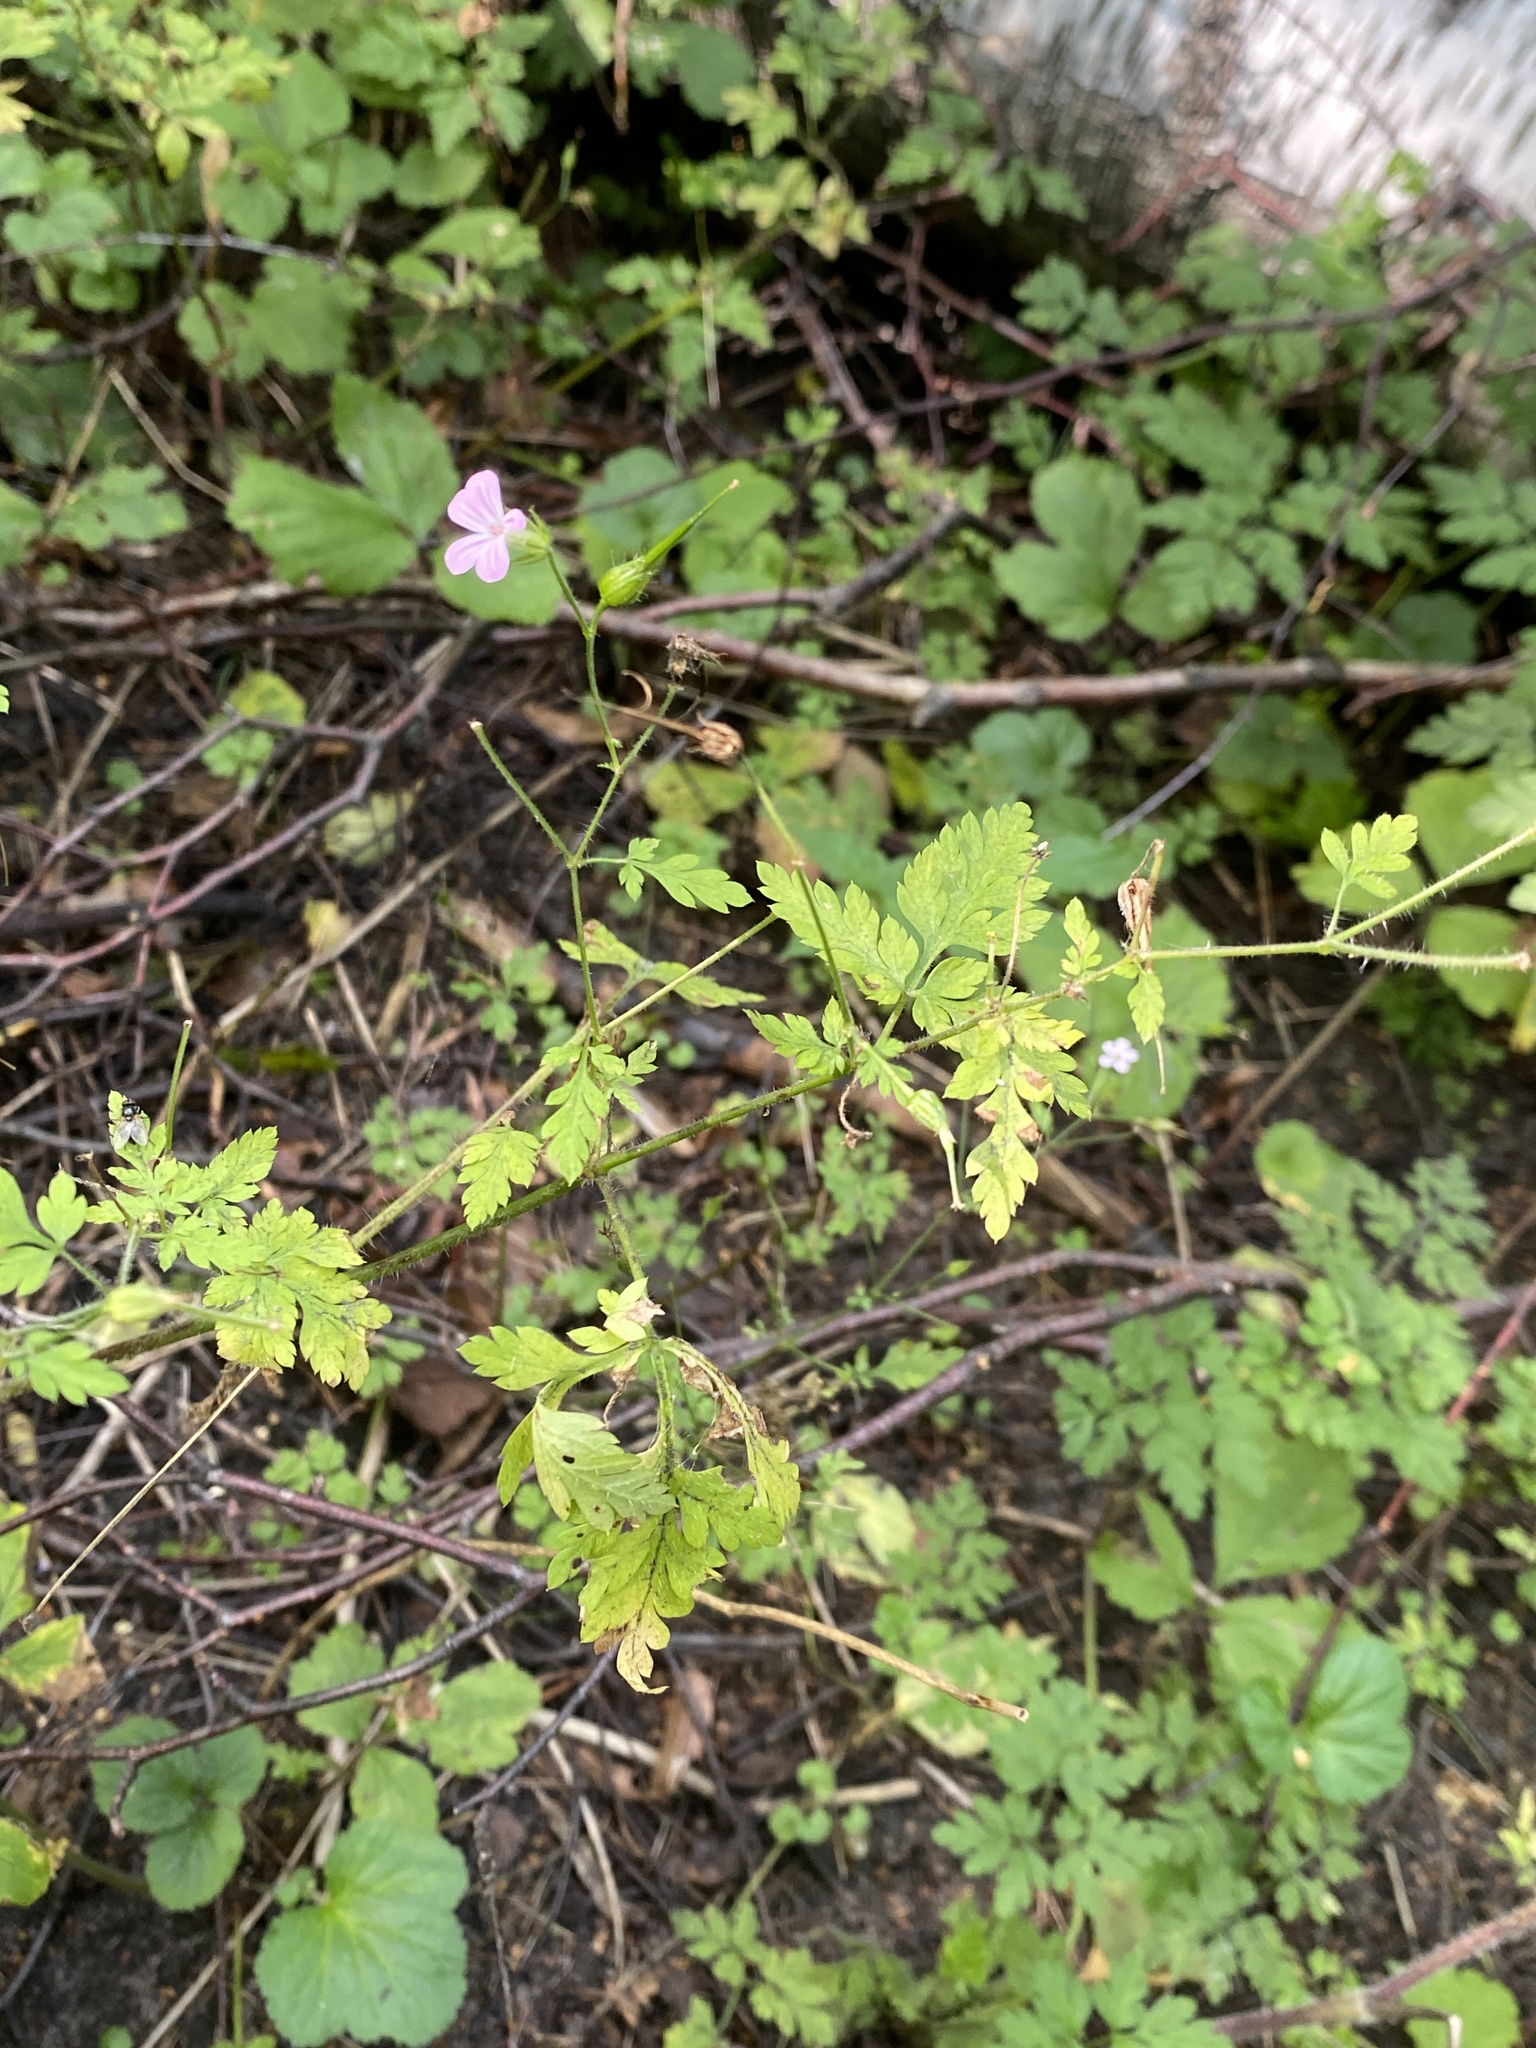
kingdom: Plantae
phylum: Tracheophyta
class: Magnoliopsida
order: Geraniales
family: Geraniaceae
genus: Geranium
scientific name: Geranium robertianum
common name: Herb-robert
